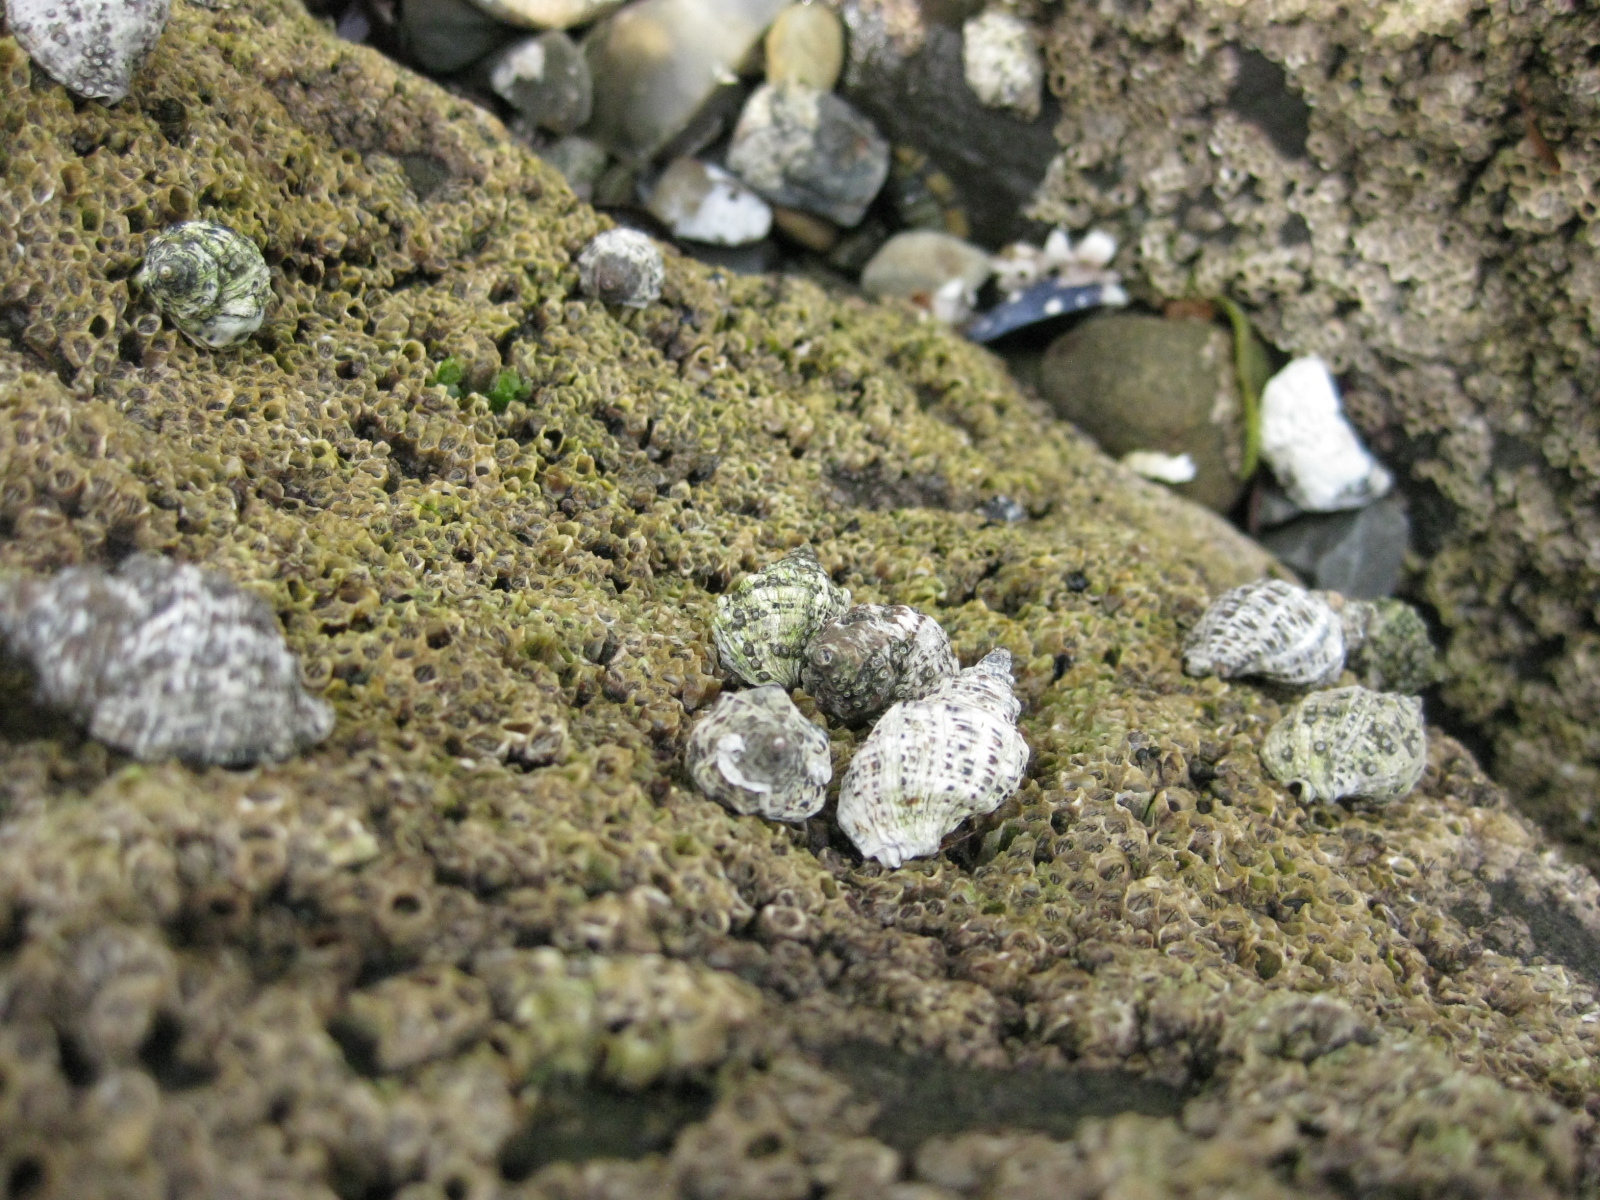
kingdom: Animalia
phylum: Mollusca
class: Gastropoda
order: Neogastropoda
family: Muricidae
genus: Haustrum
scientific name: Haustrum scobina
